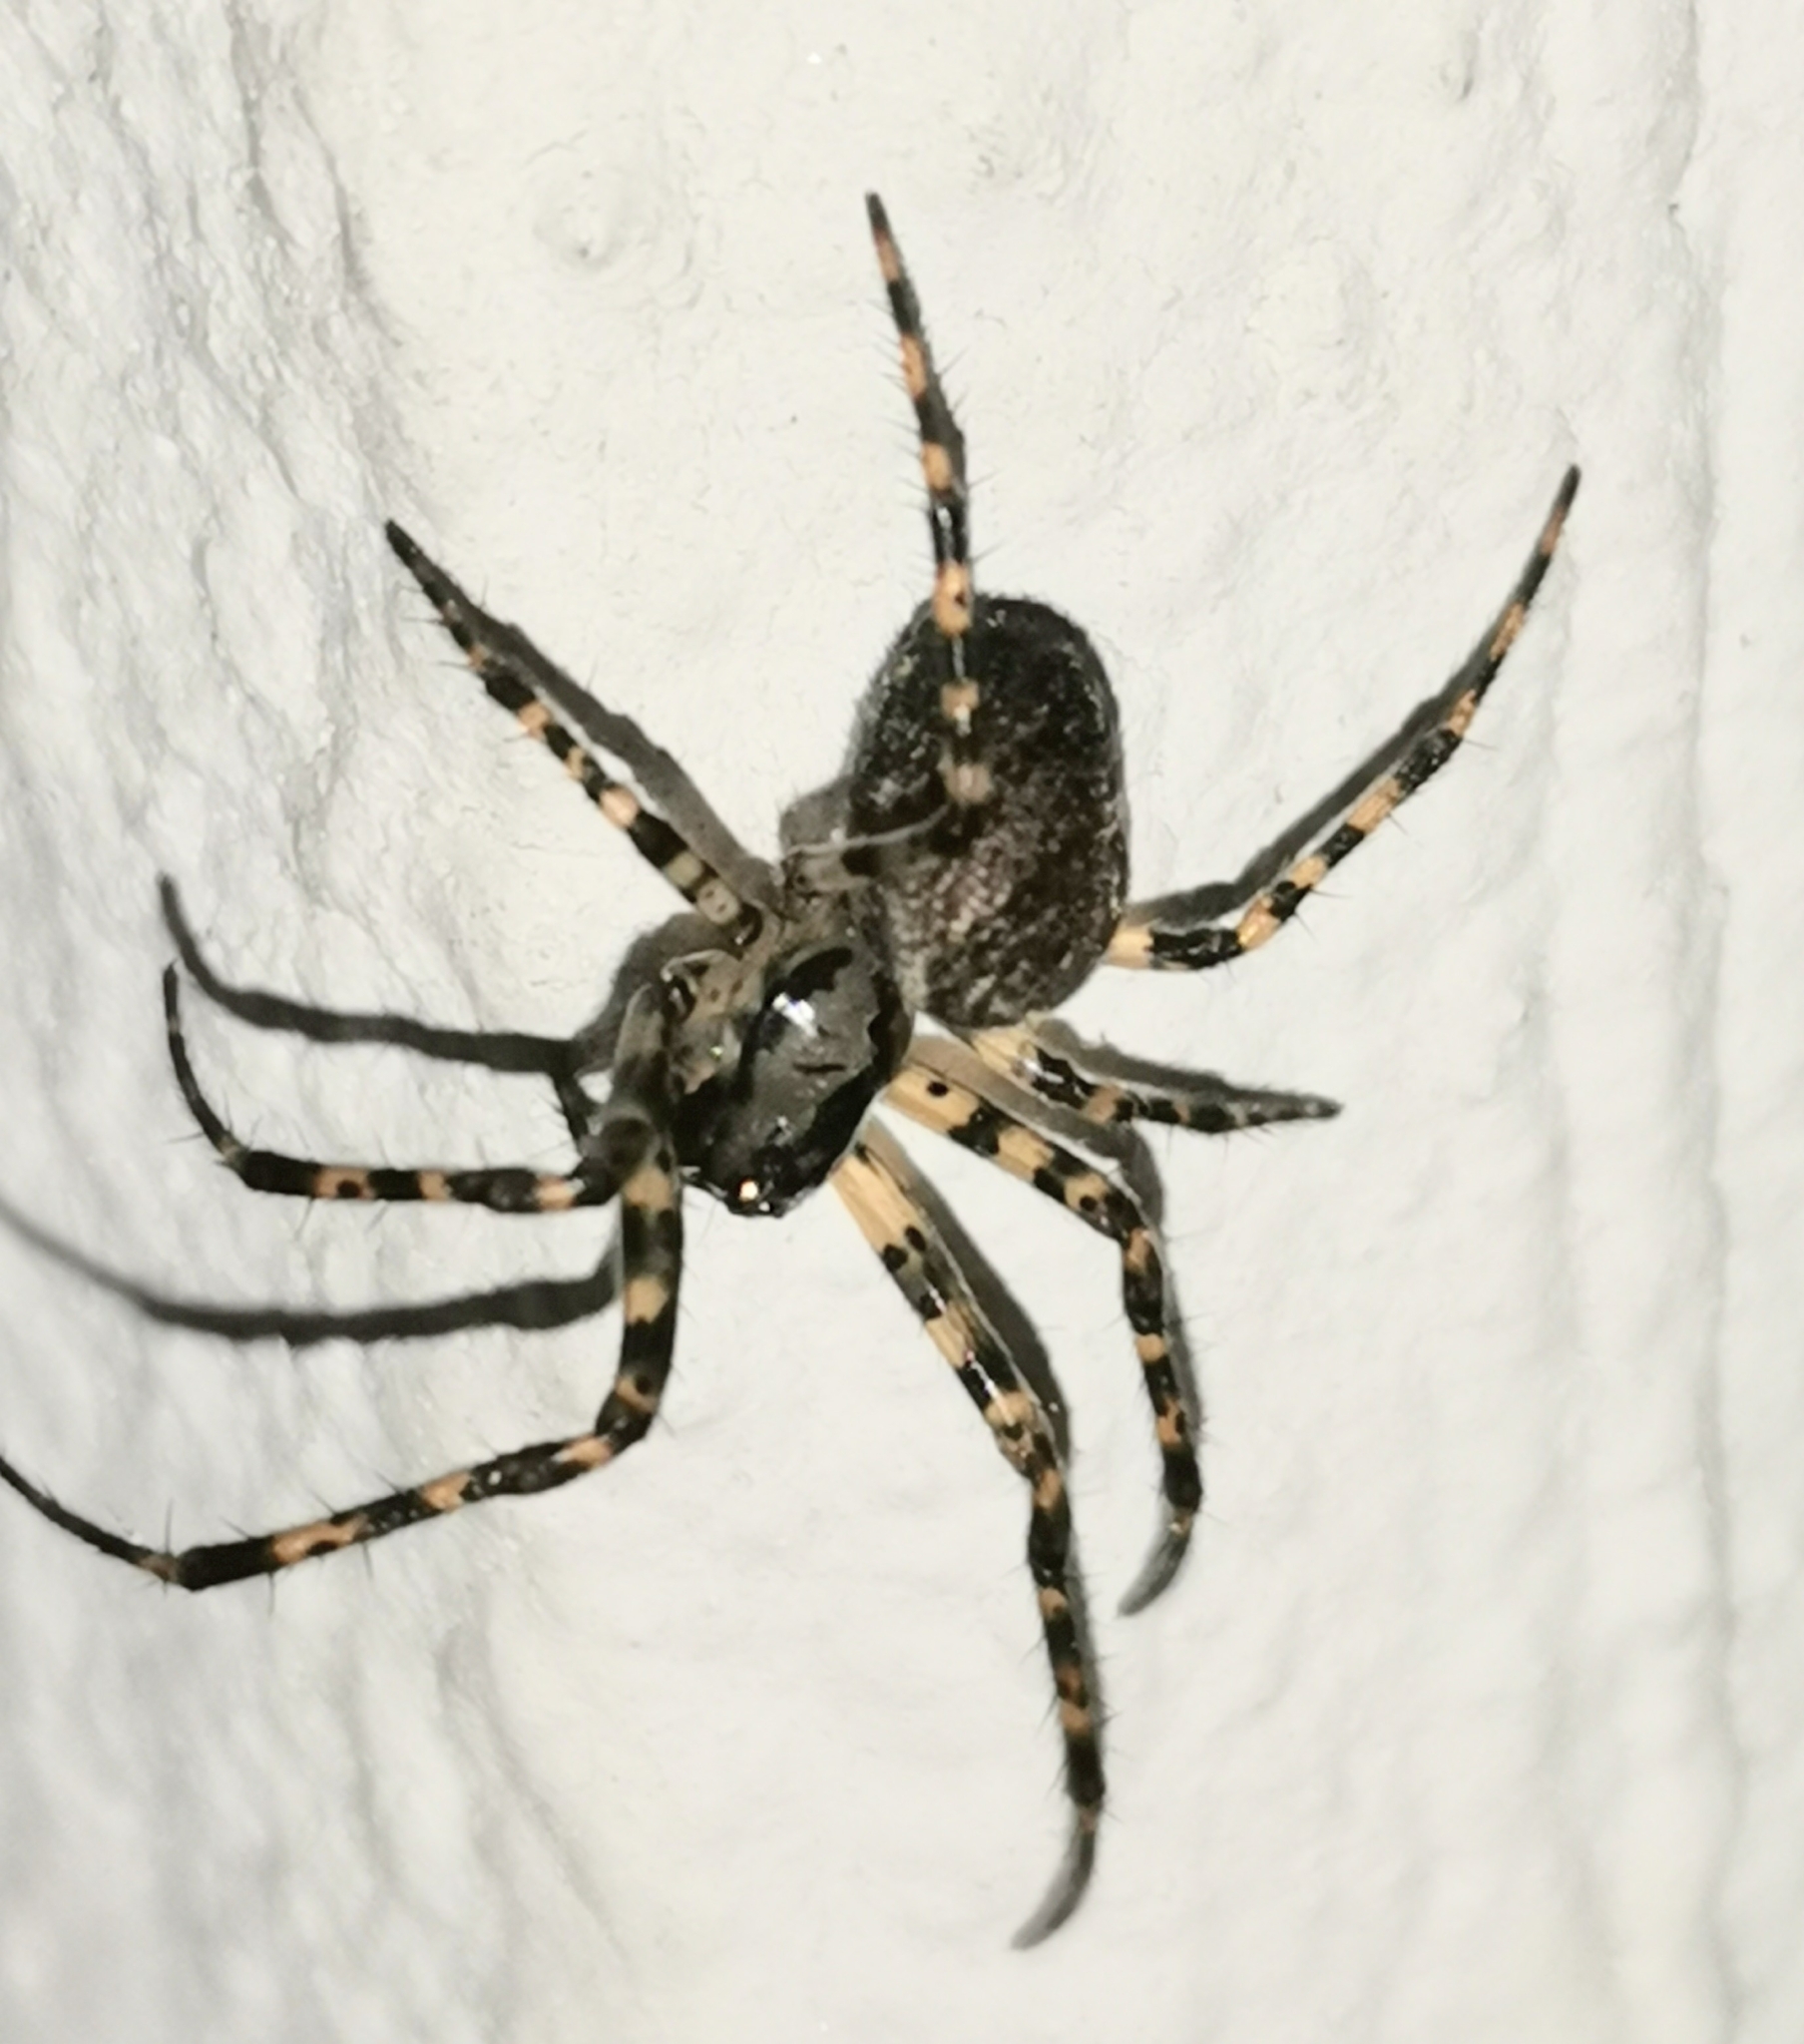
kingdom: Animalia
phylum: Arthropoda
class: Arachnida
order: Araneae
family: Tetragnathidae
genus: Metellina
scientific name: Metellina merianae
